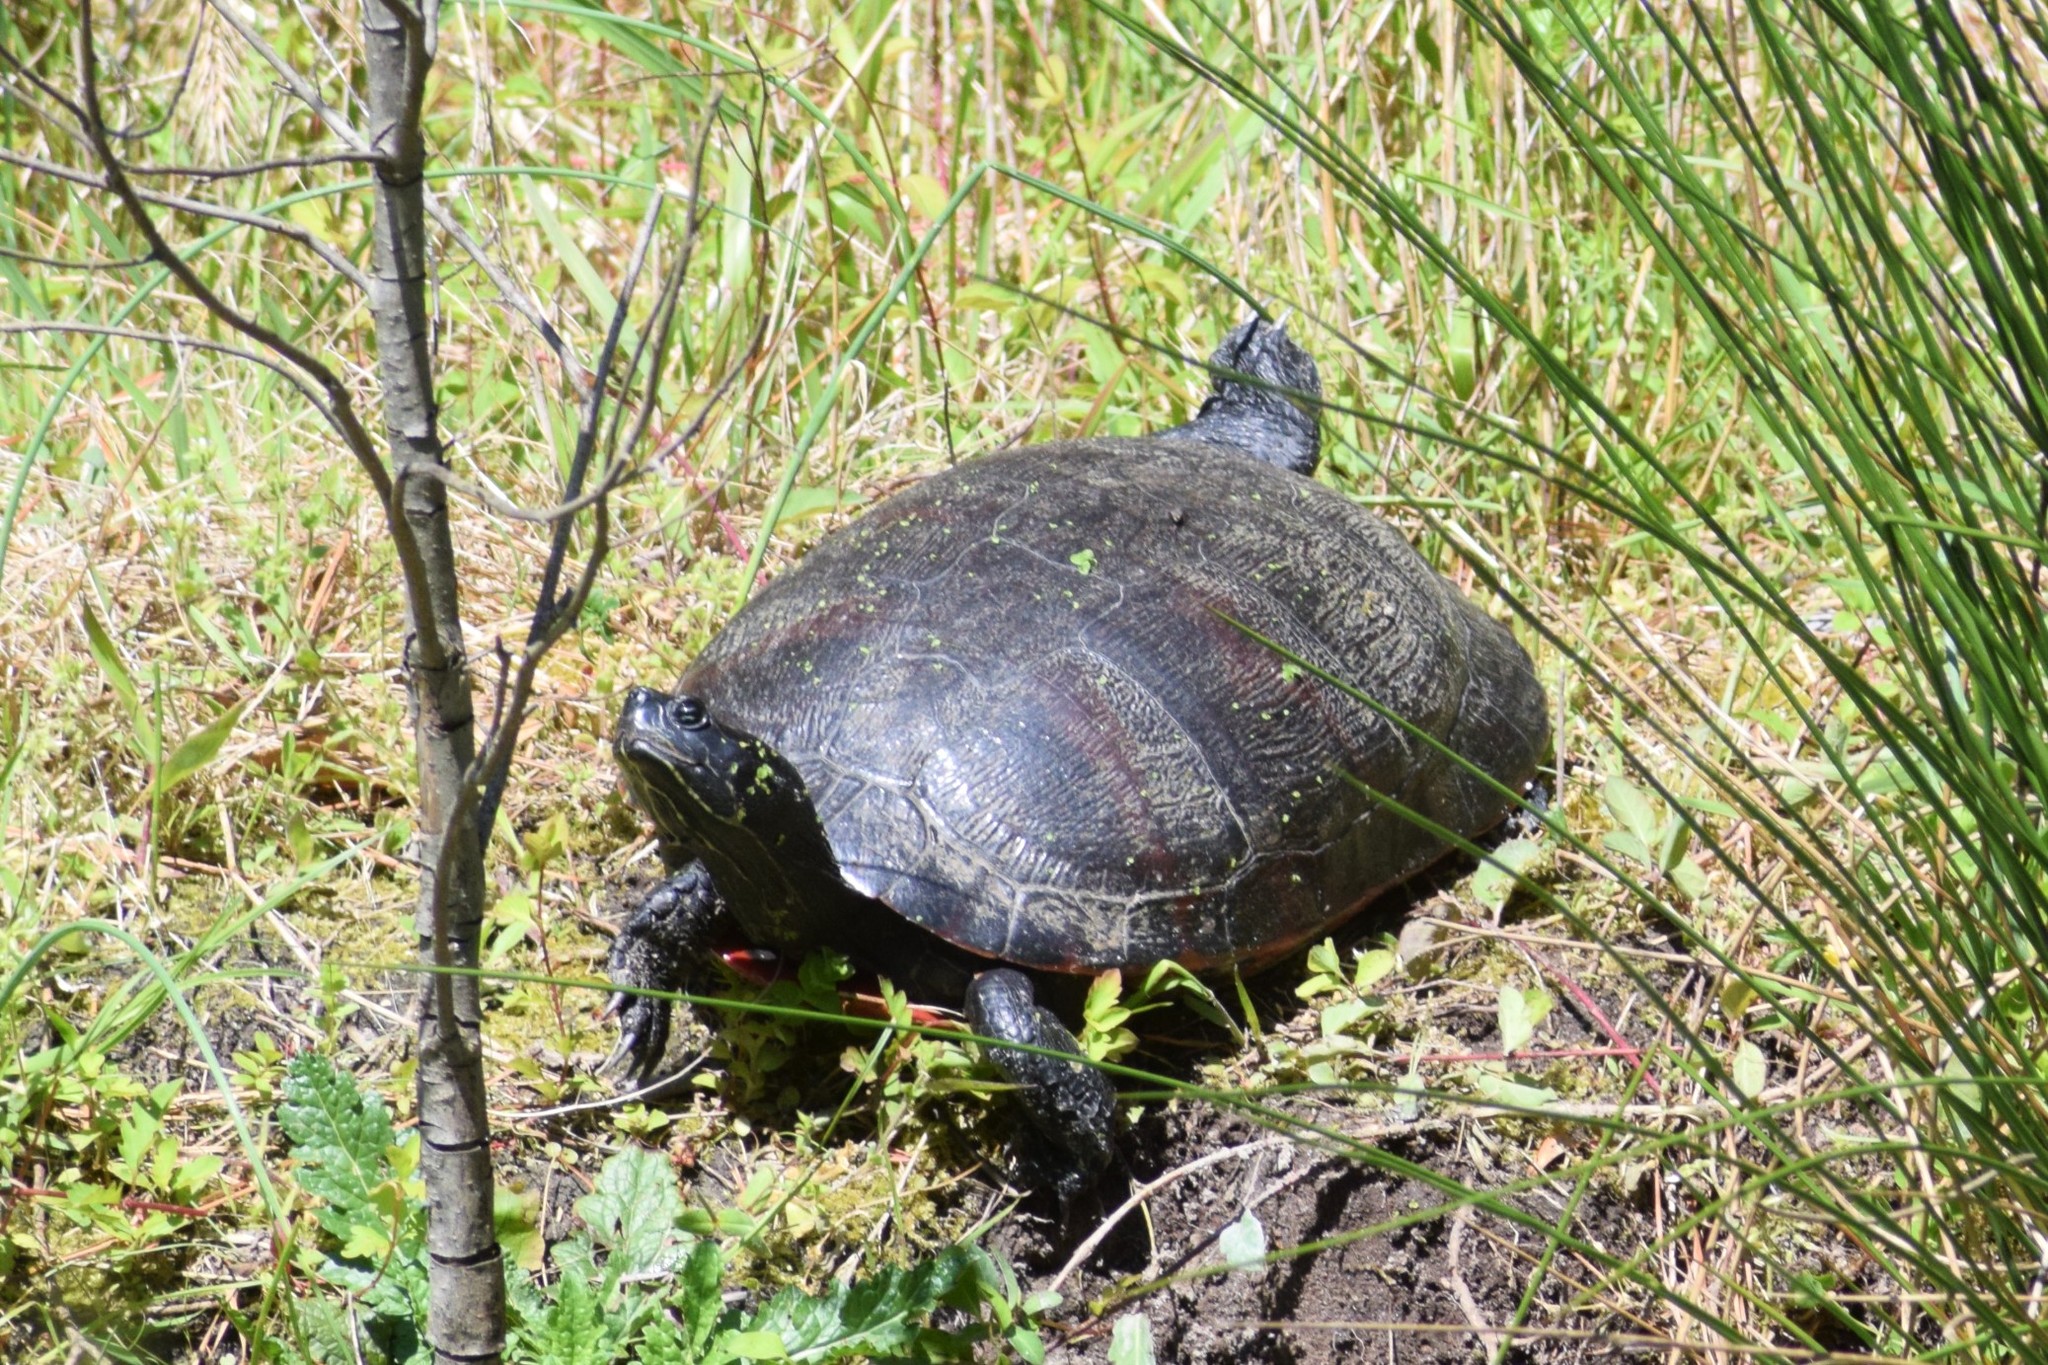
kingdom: Animalia
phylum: Chordata
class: Testudines
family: Emydidae
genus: Pseudemys
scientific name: Pseudemys rubriventris
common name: American red-bellied turtle
